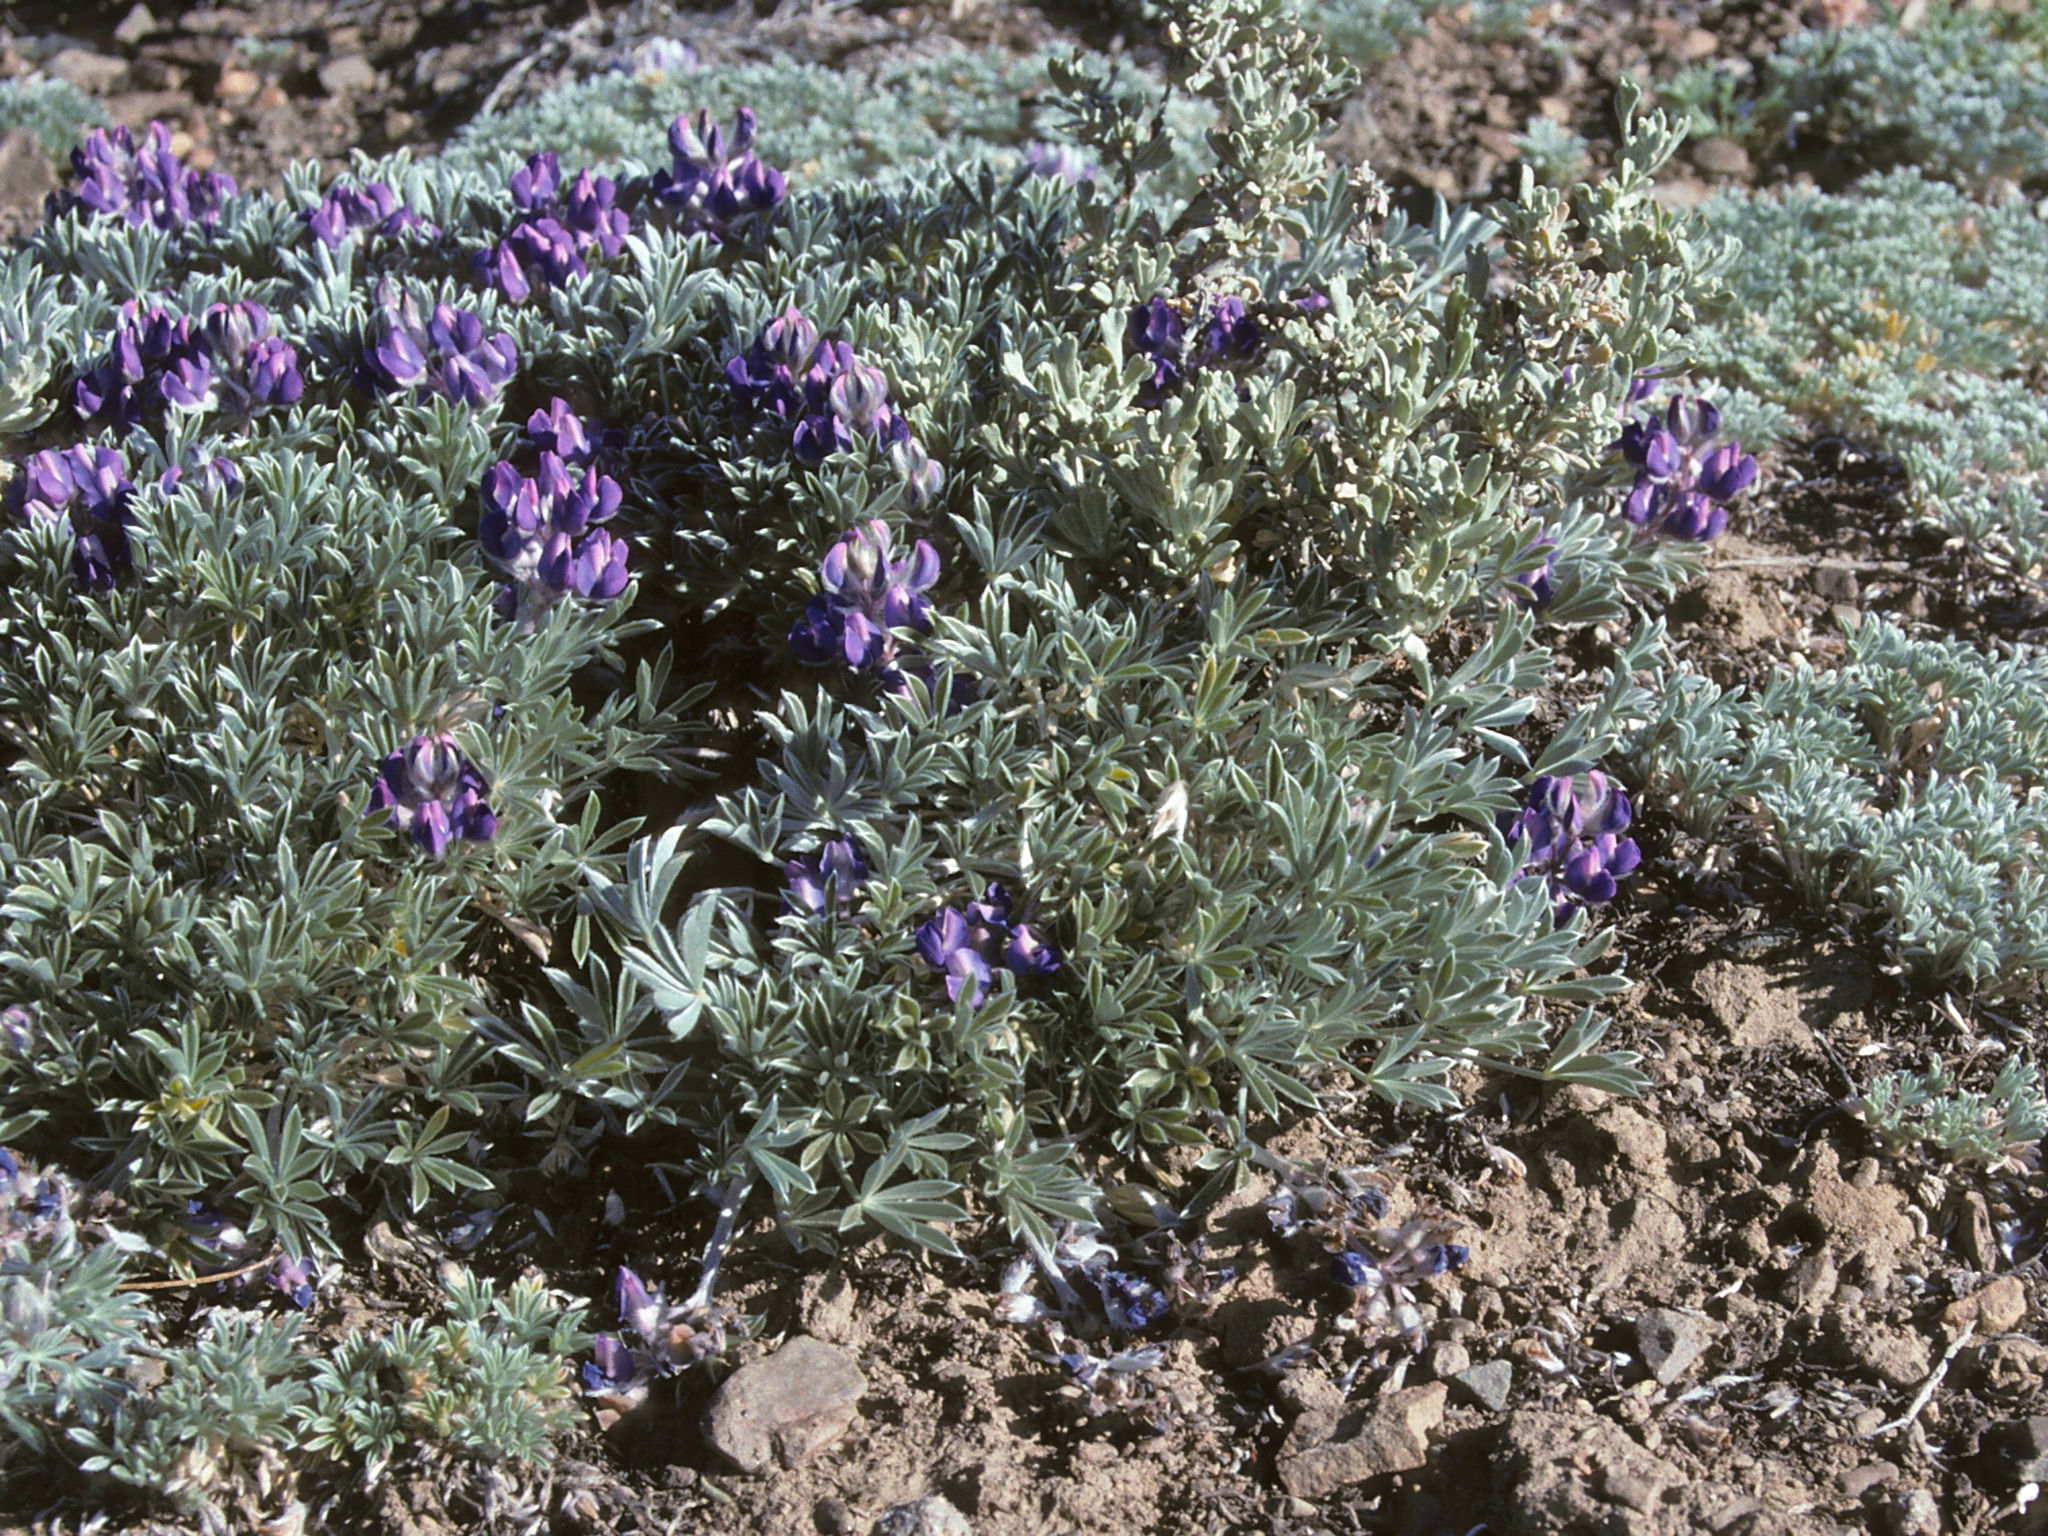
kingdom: Plantae
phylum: Tracheophyta
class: Magnoliopsida
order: Fabales
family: Fabaceae
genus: Lupinus
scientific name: Lupinus breweri
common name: Brewer's lupine
